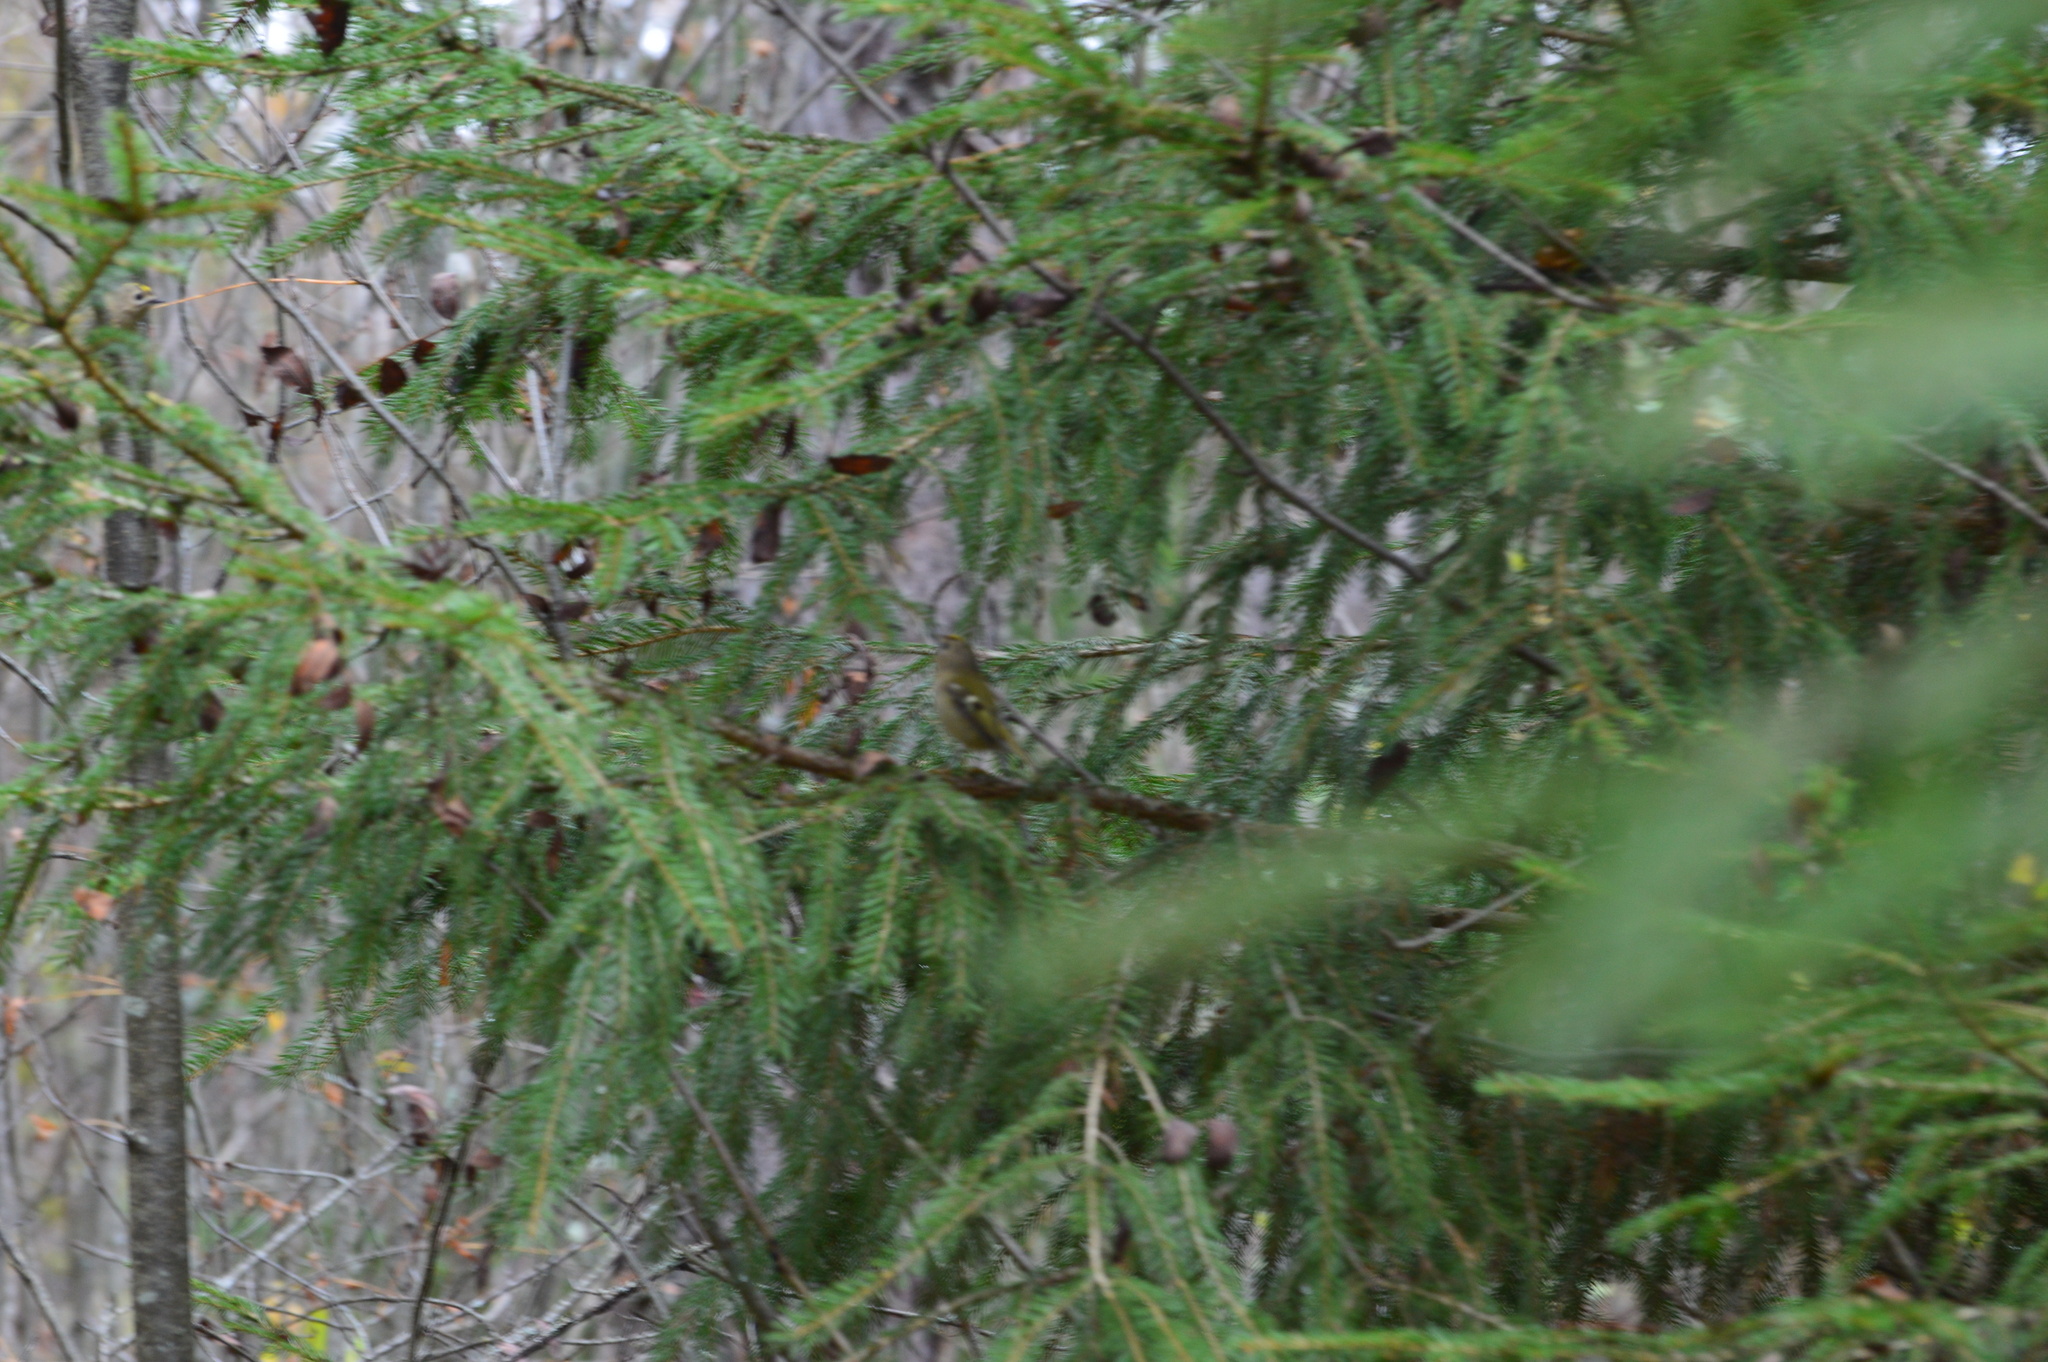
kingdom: Animalia
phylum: Chordata
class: Aves
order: Passeriformes
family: Regulidae
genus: Regulus
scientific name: Regulus regulus
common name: Goldcrest
